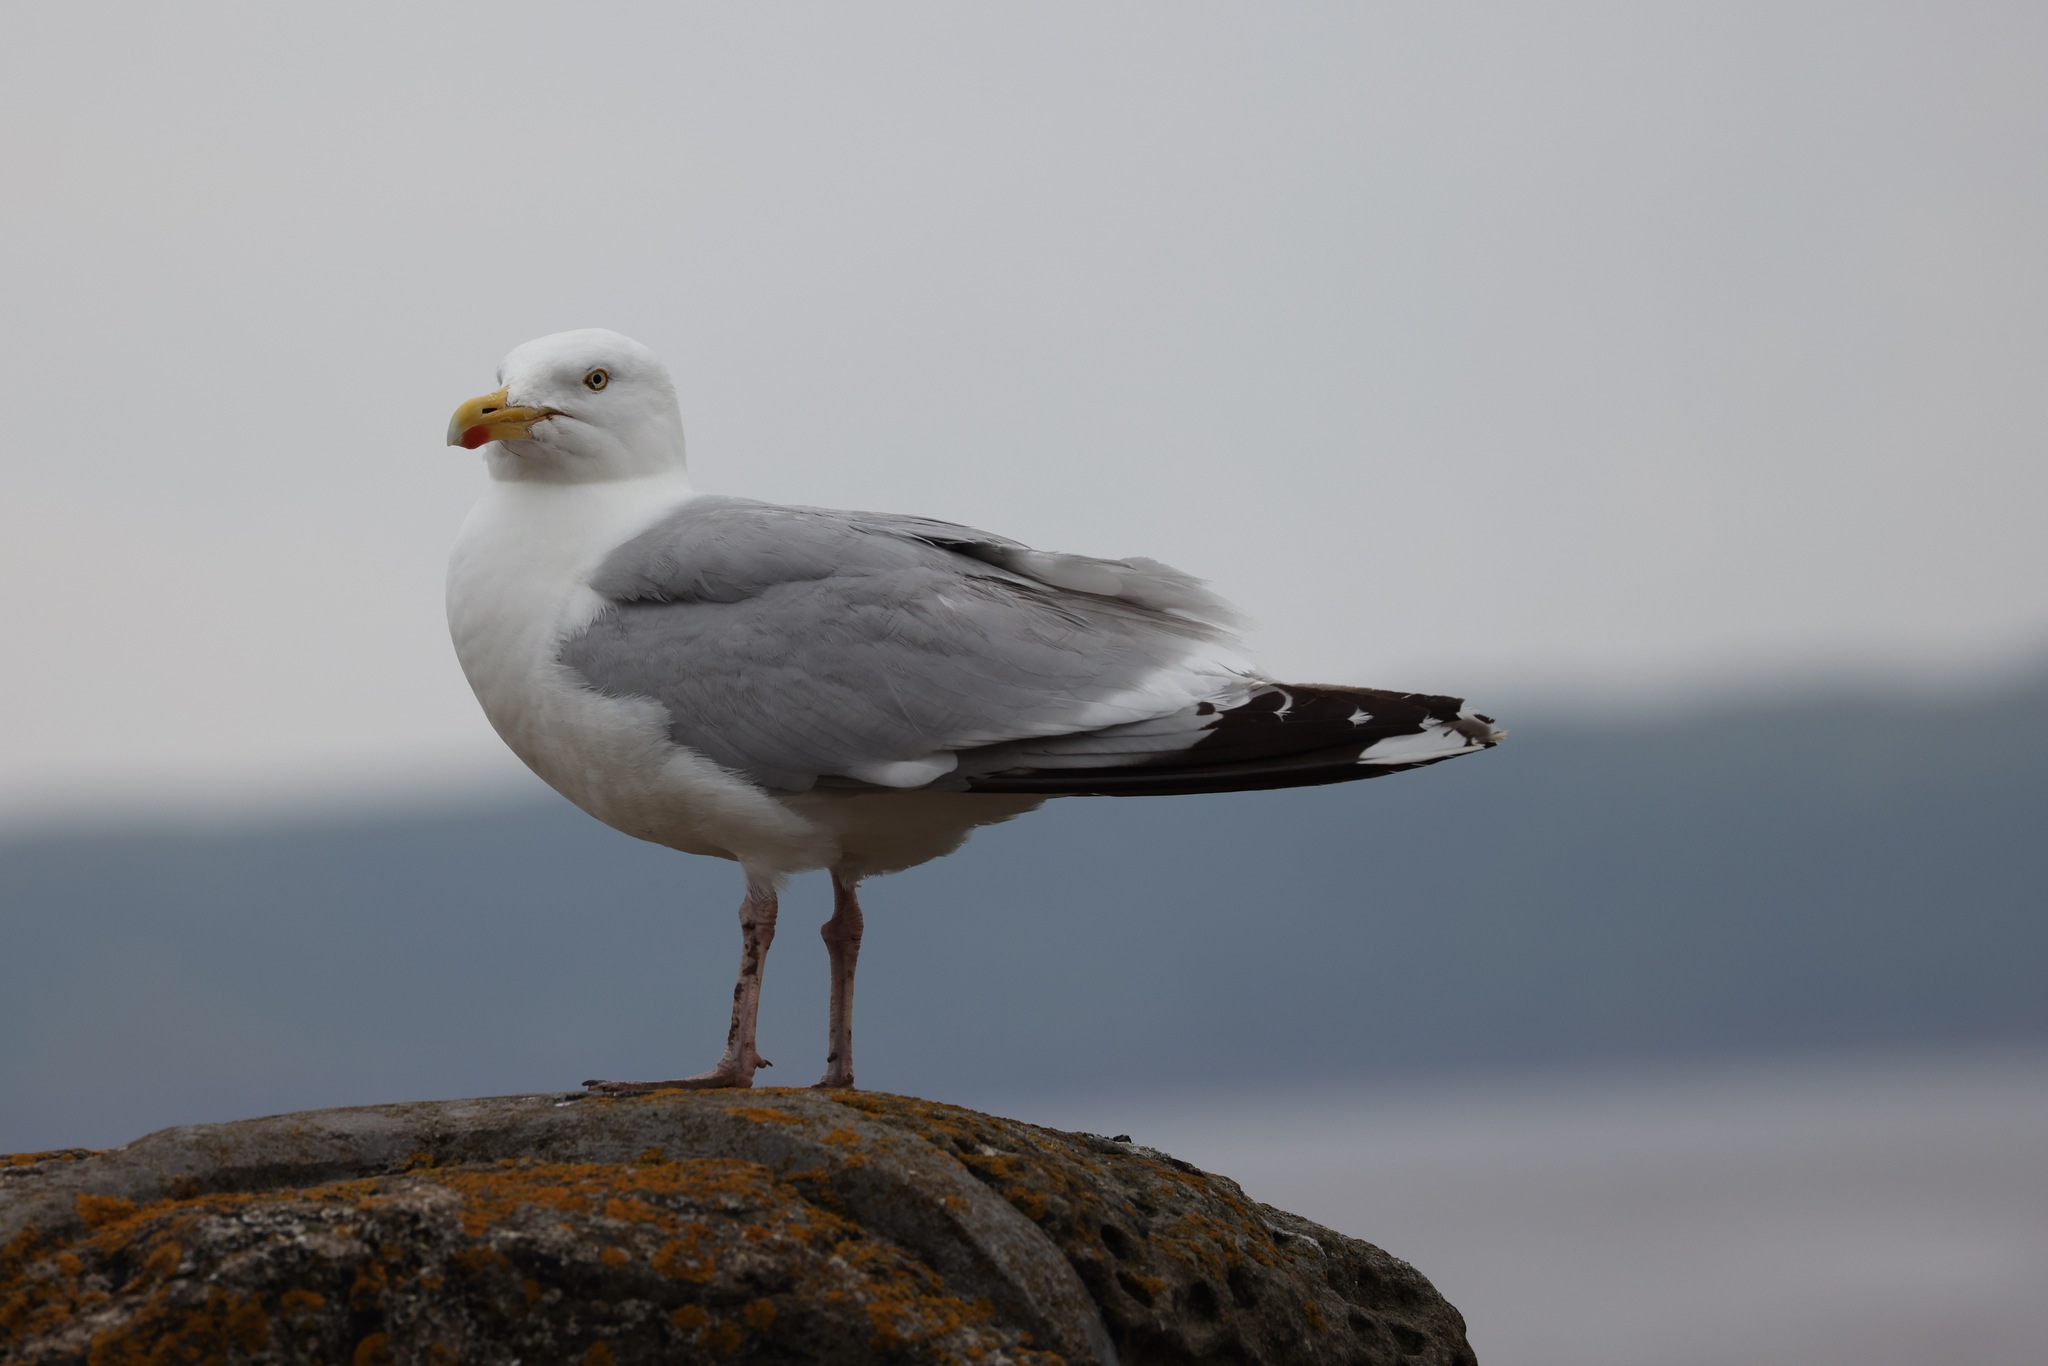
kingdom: Animalia
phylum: Chordata
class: Aves
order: Charadriiformes
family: Laridae
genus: Larus
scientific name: Larus argentatus
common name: Herring gull
